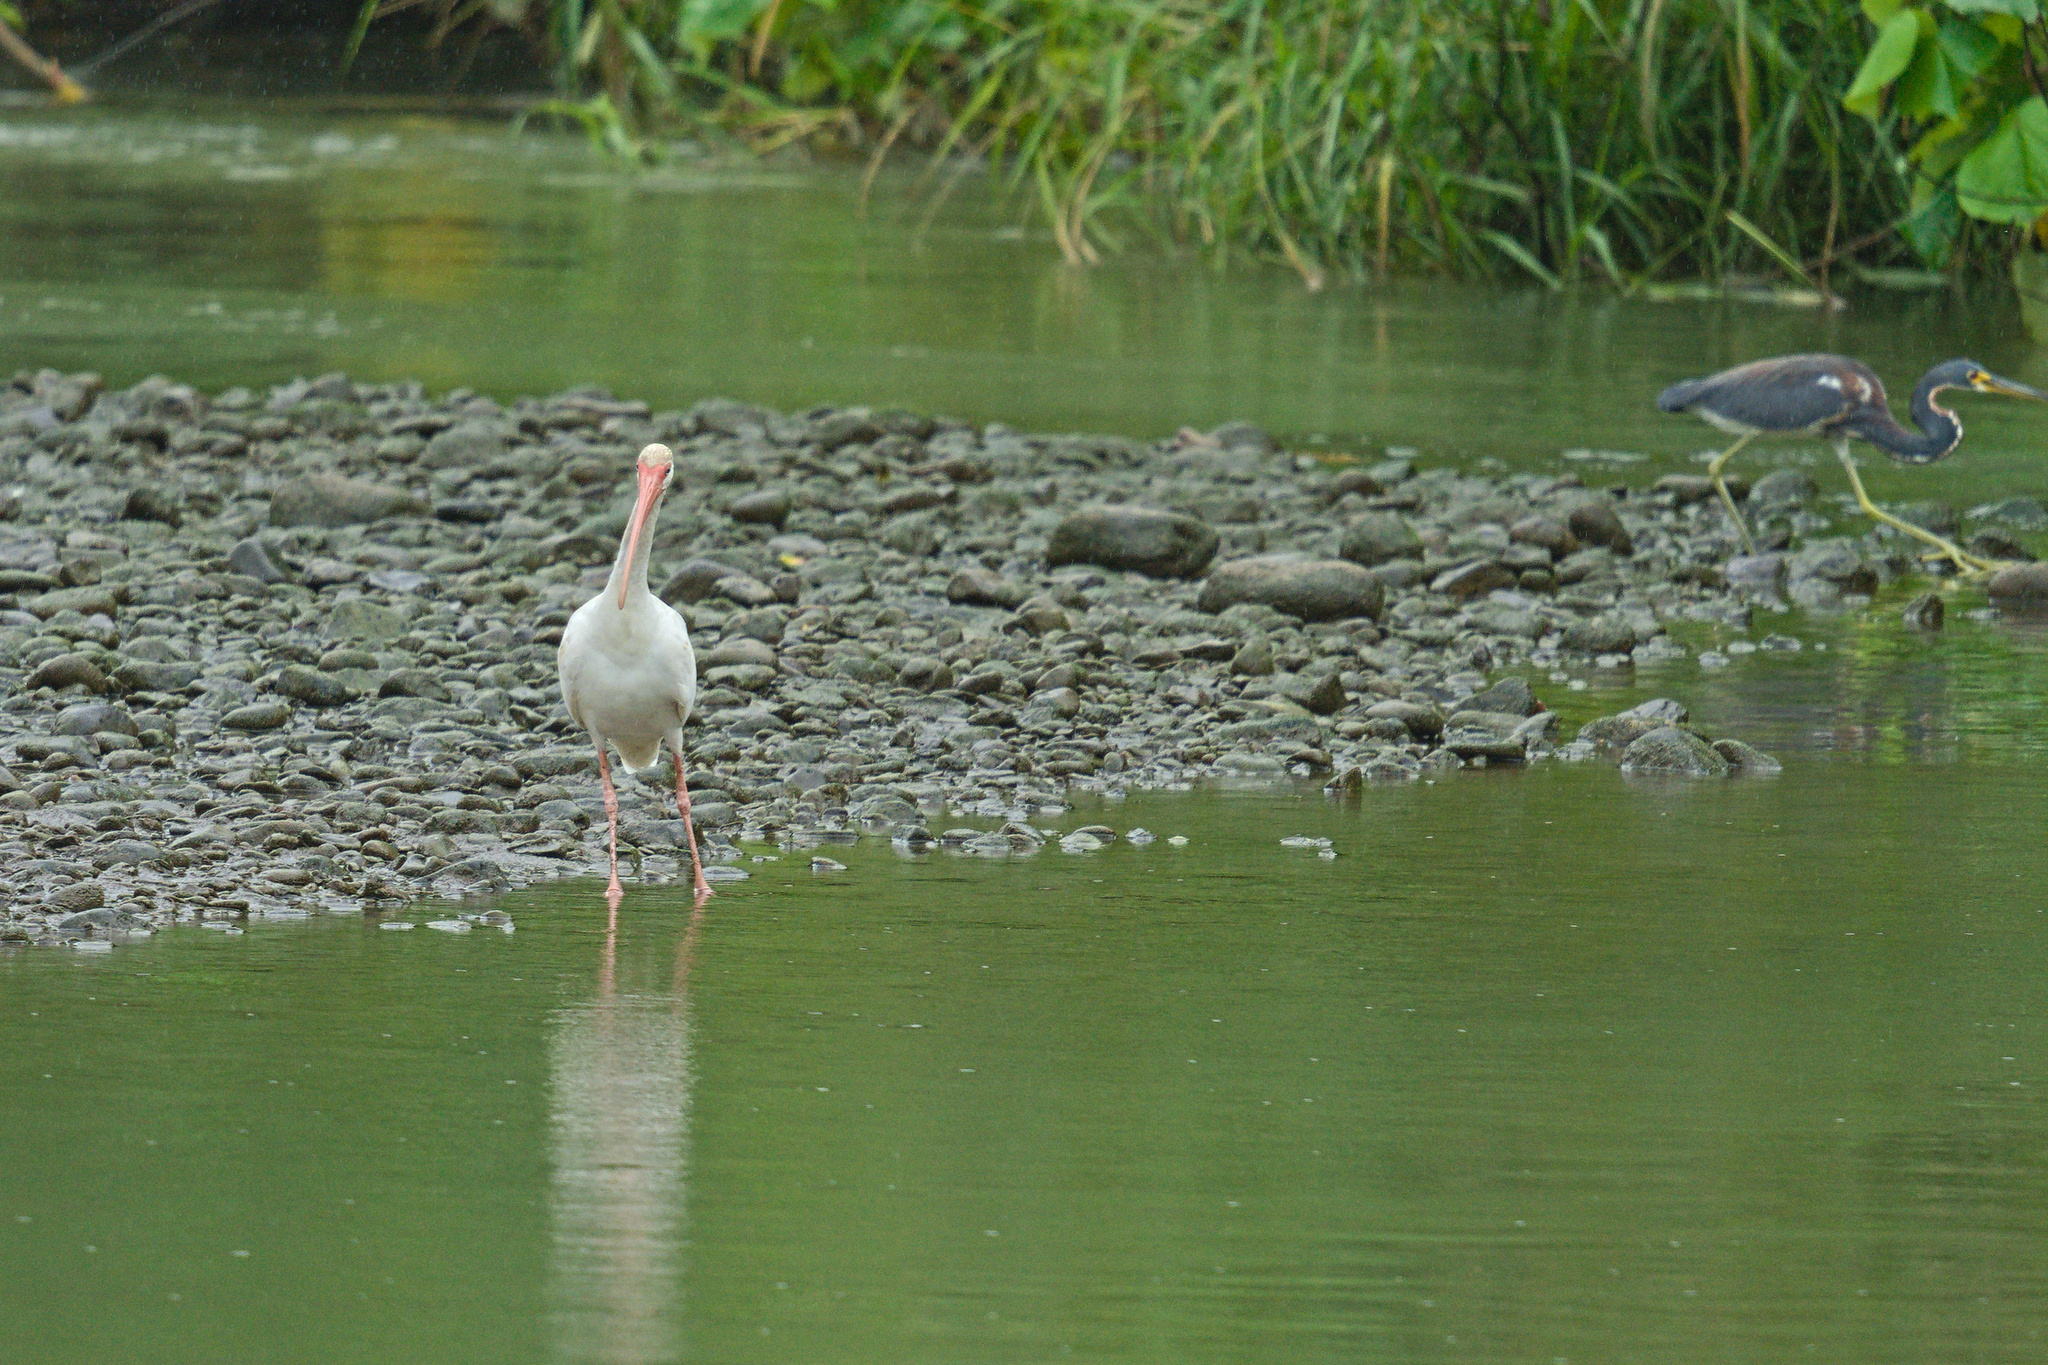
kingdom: Animalia
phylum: Chordata
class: Aves
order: Pelecaniformes
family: Threskiornithidae
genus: Eudocimus
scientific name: Eudocimus albus
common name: White ibis
